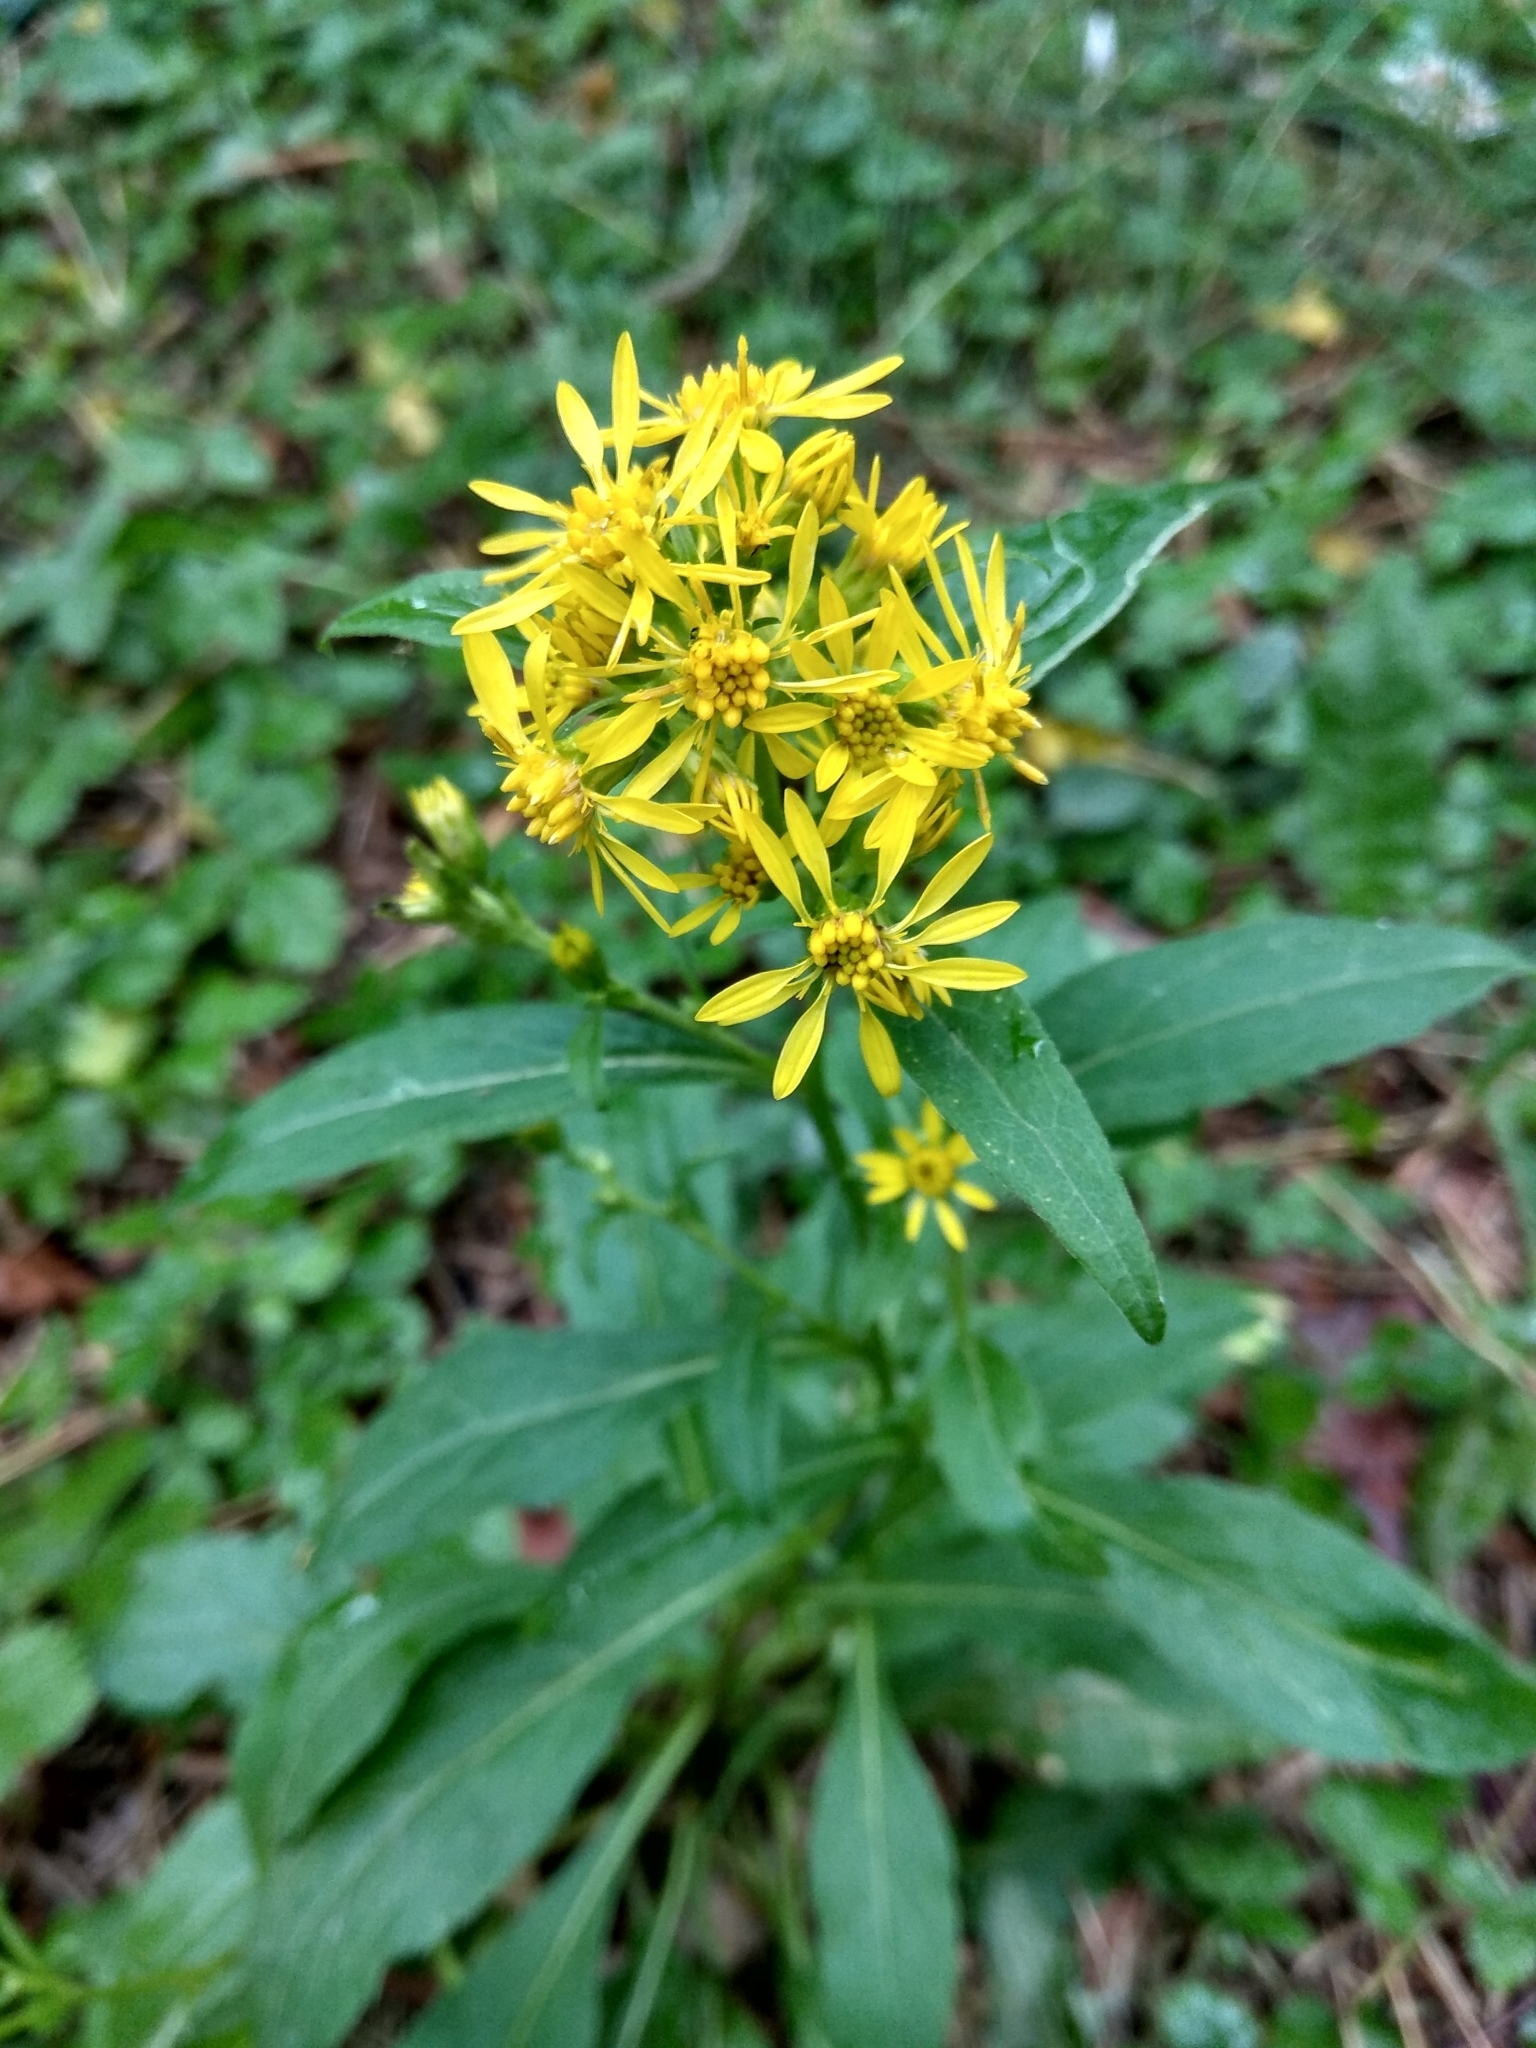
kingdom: Plantae
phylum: Tracheophyta
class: Magnoliopsida
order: Asterales
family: Asteraceae
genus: Solidago
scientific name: Solidago virgaurea
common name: Goldenrod
